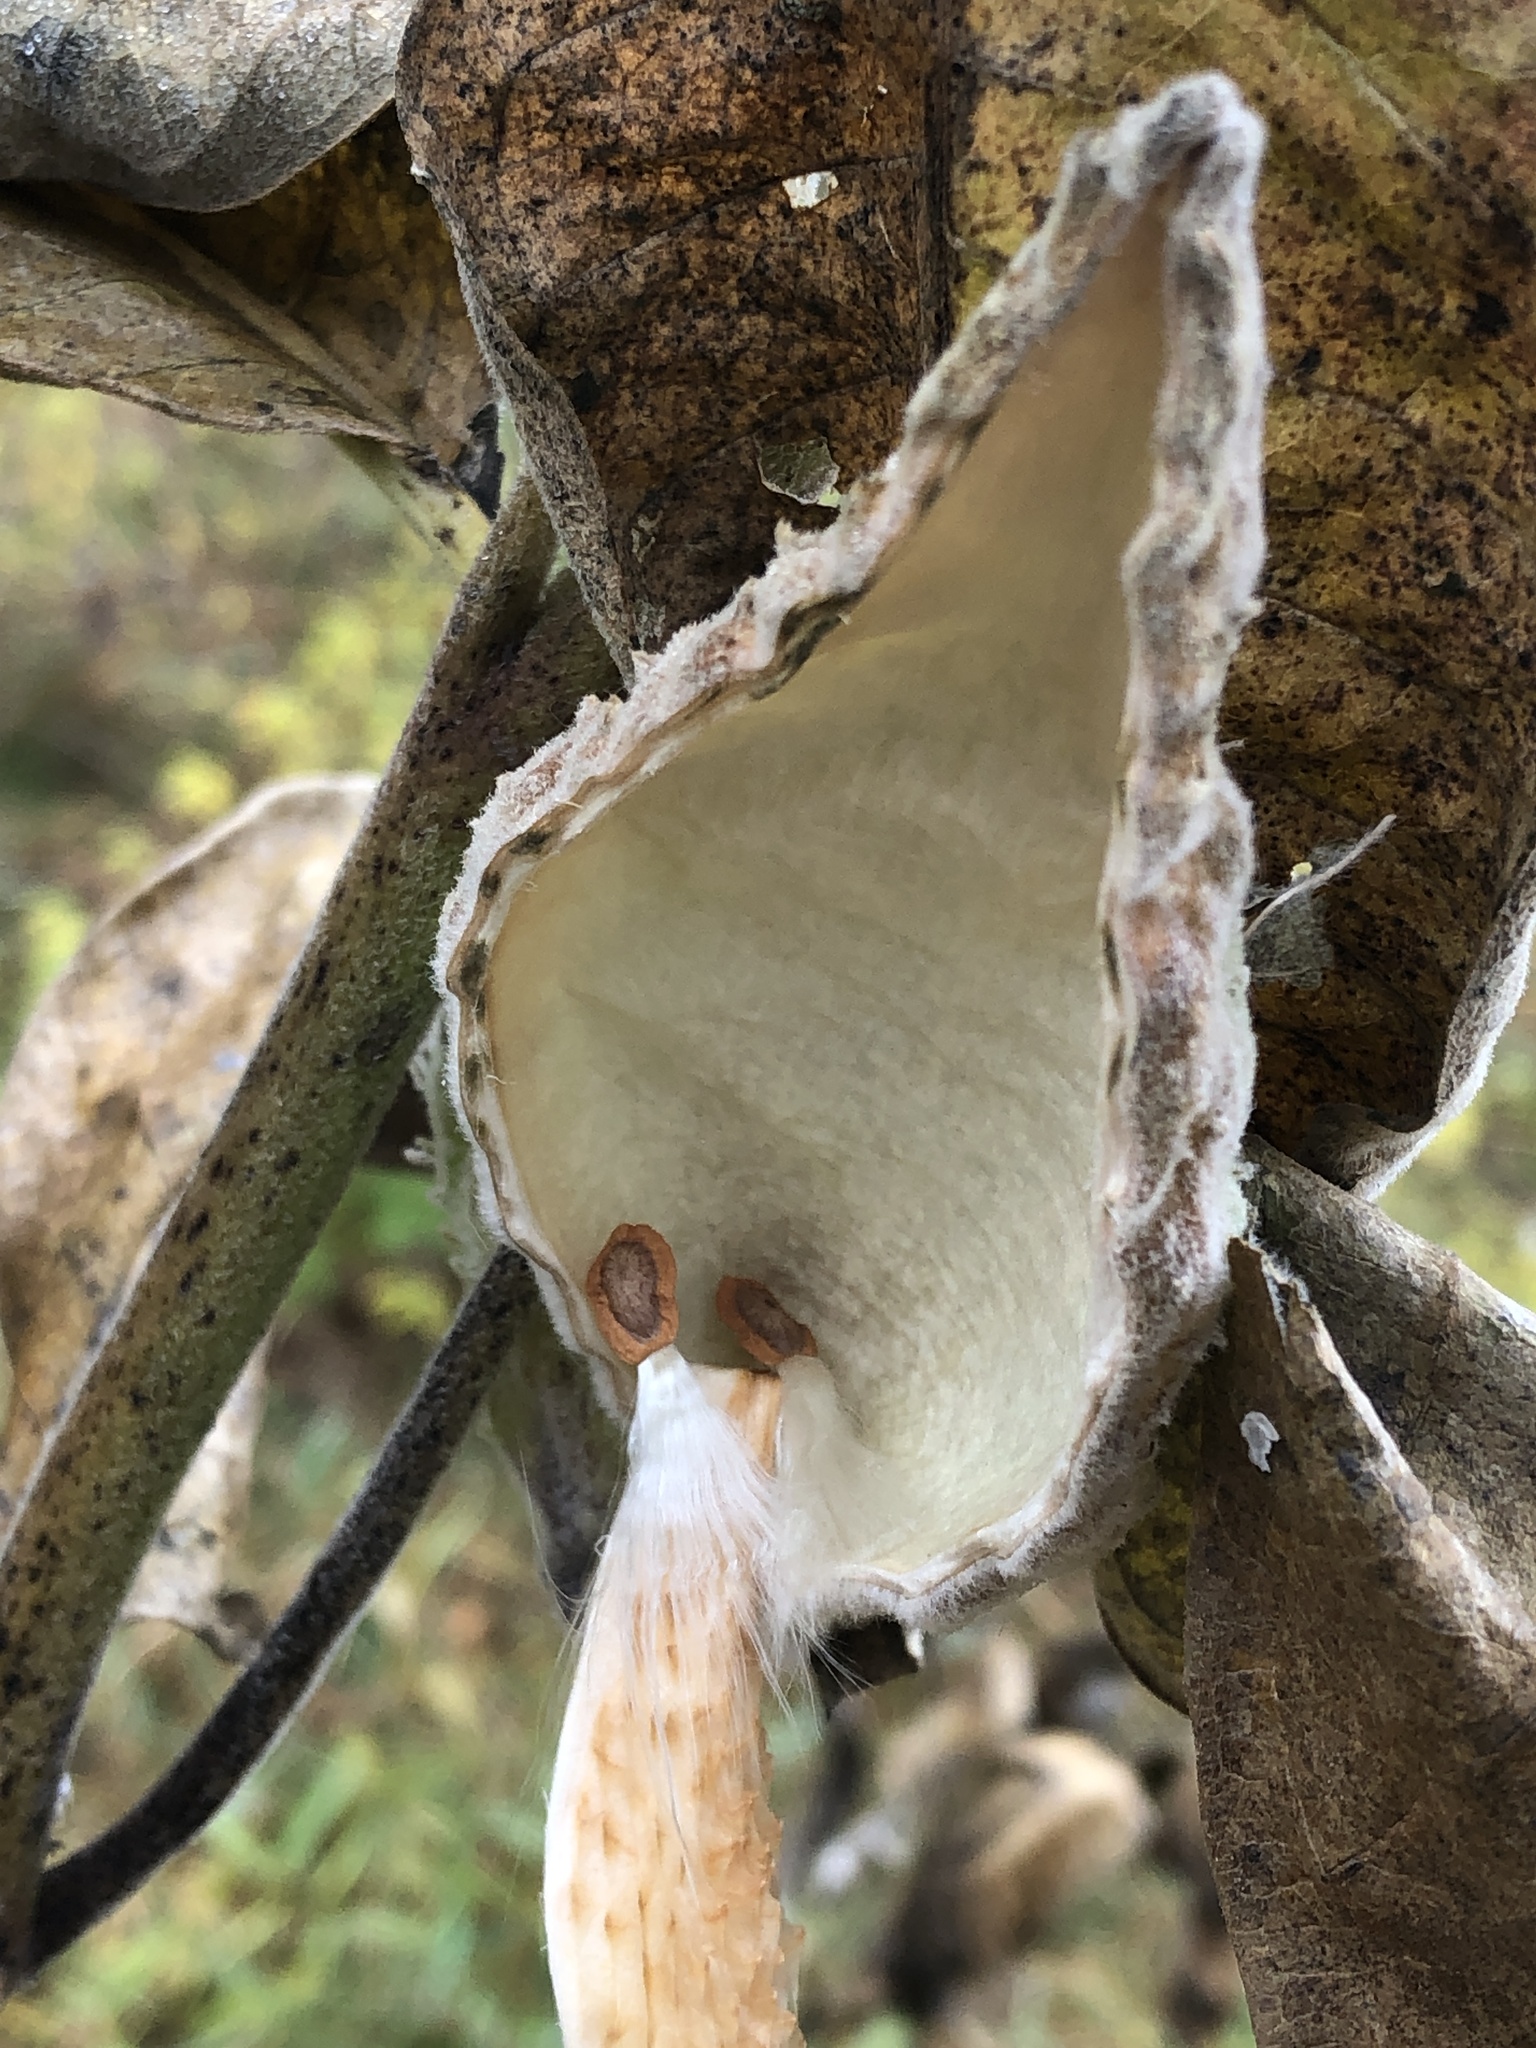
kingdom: Plantae
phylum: Tracheophyta
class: Magnoliopsida
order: Gentianales
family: Apocynaceae
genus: Asclepias
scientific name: Asclepias syriaca
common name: Common milkweed
